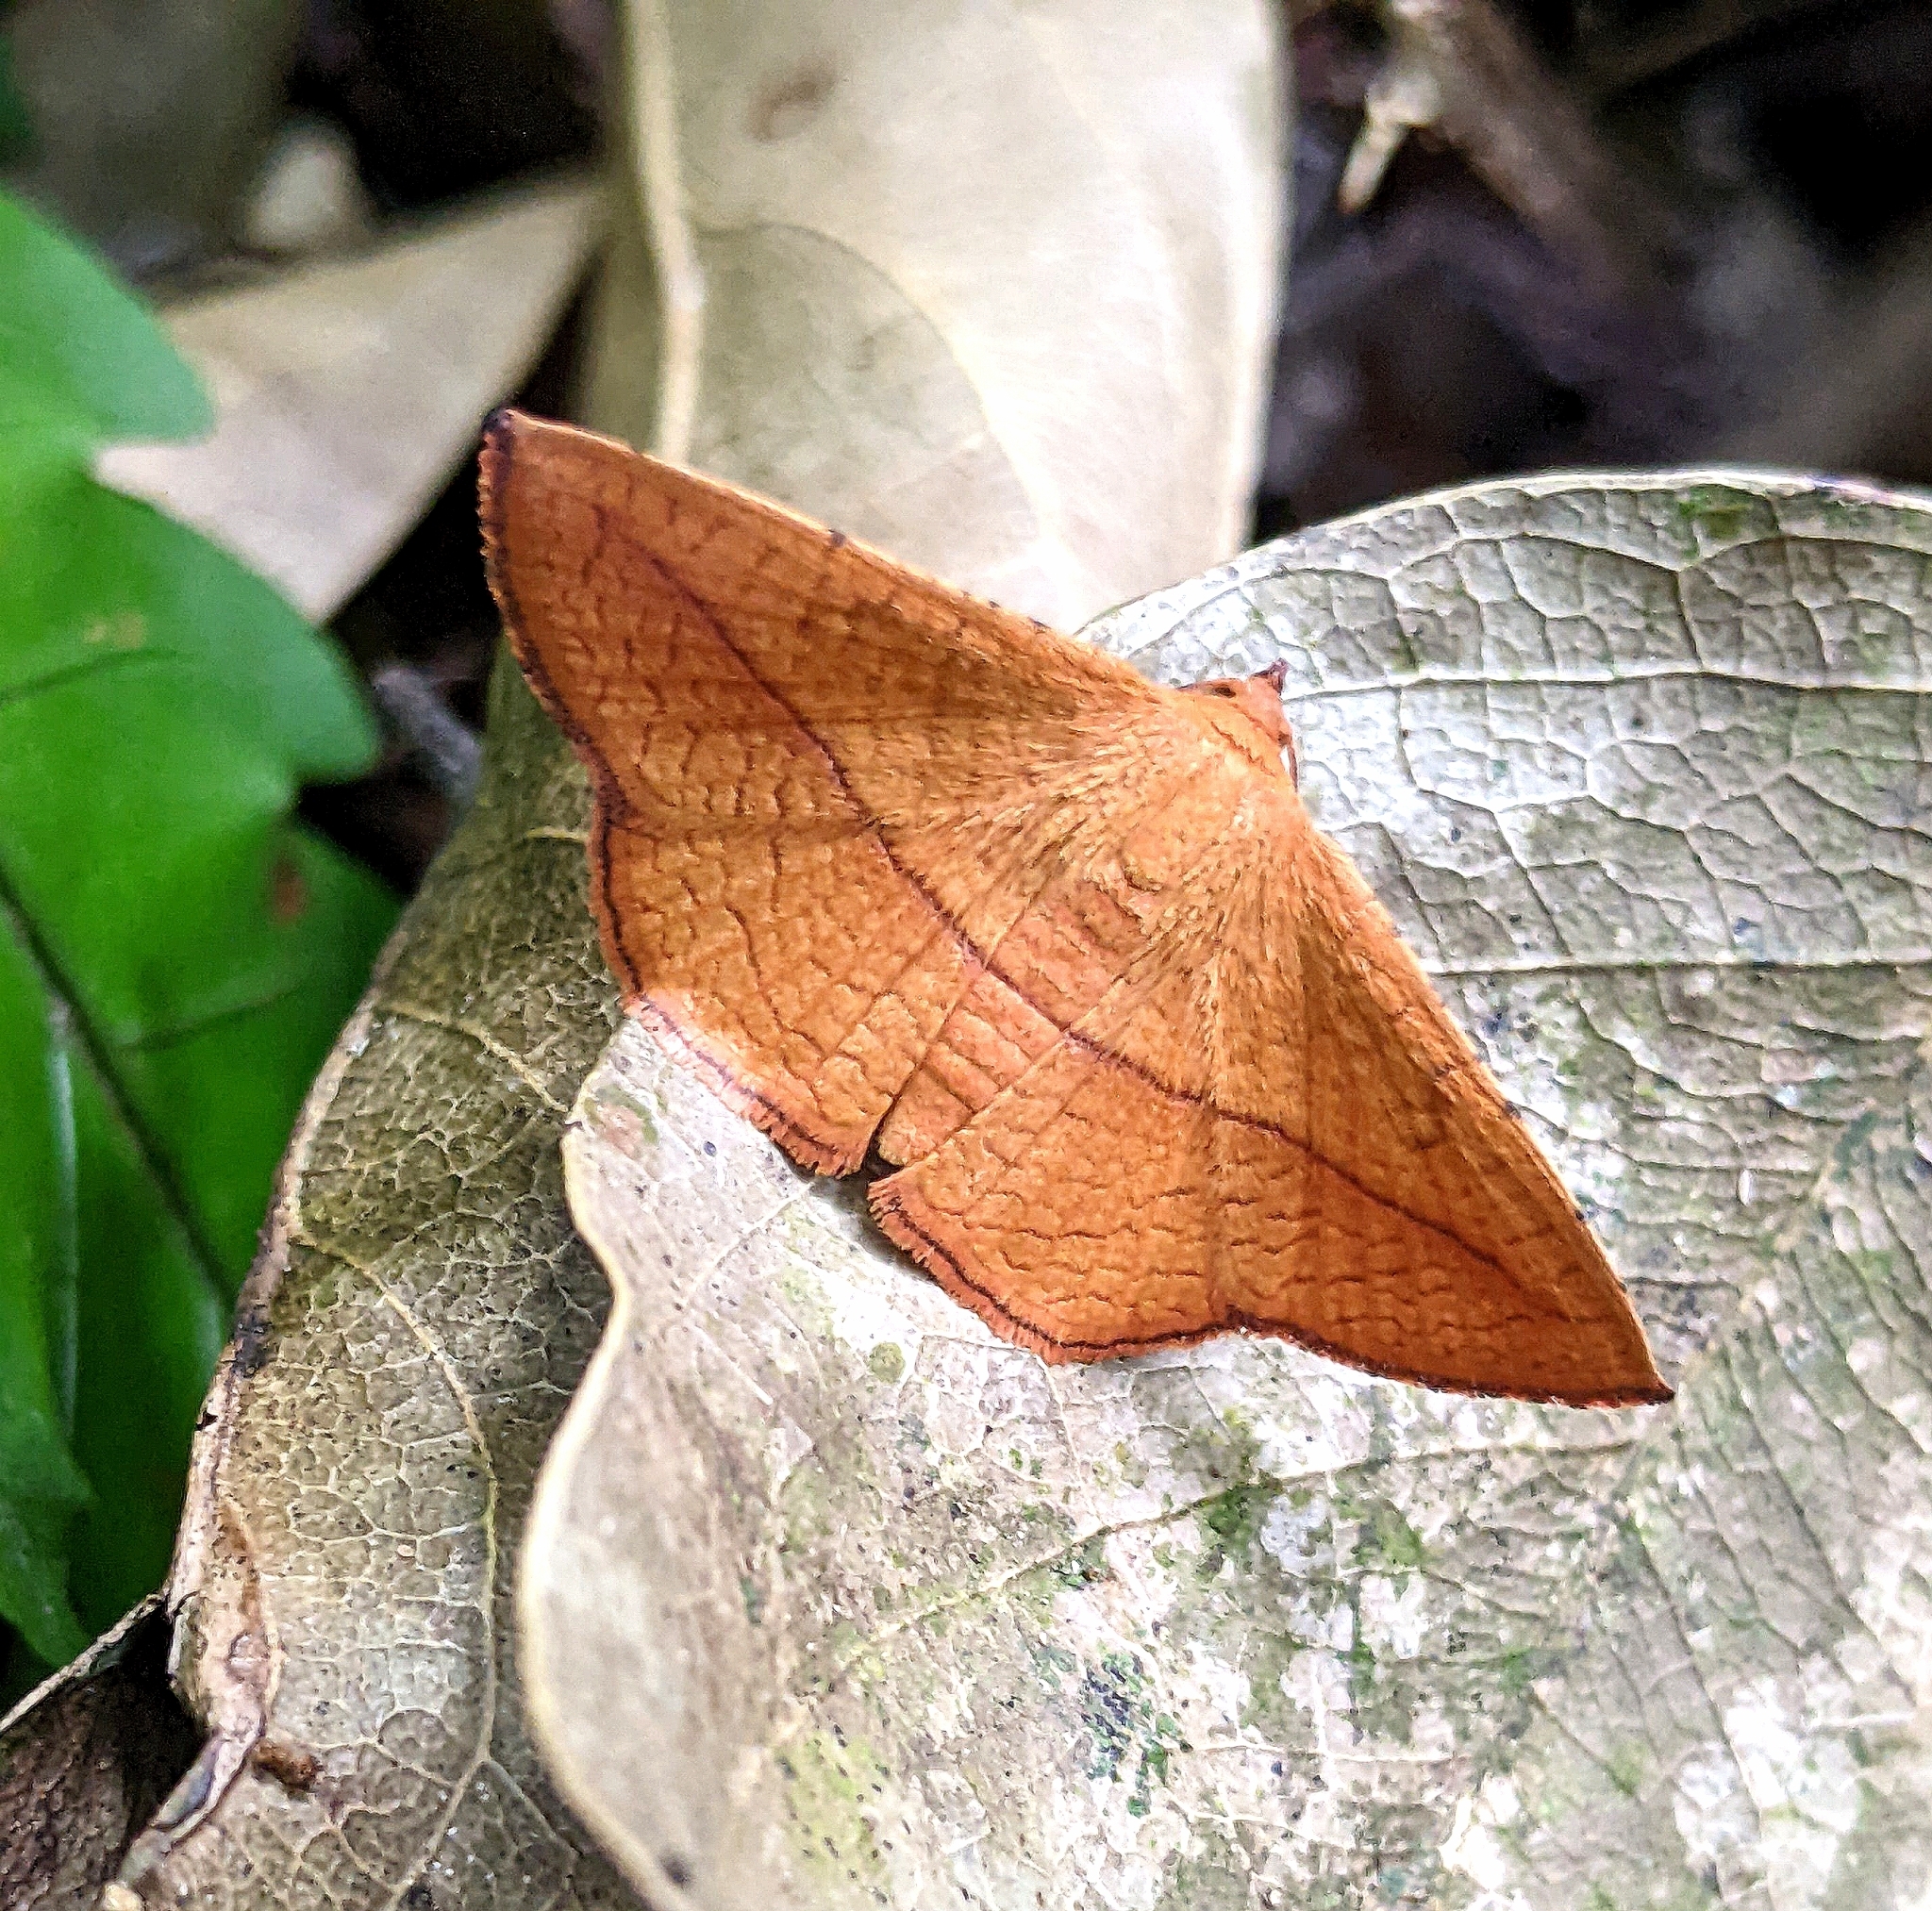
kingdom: Animalia
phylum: Arthropoda
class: Insecta
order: Lepidoptera
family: Thyrididae
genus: Striglina
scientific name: Striglina scitaria
